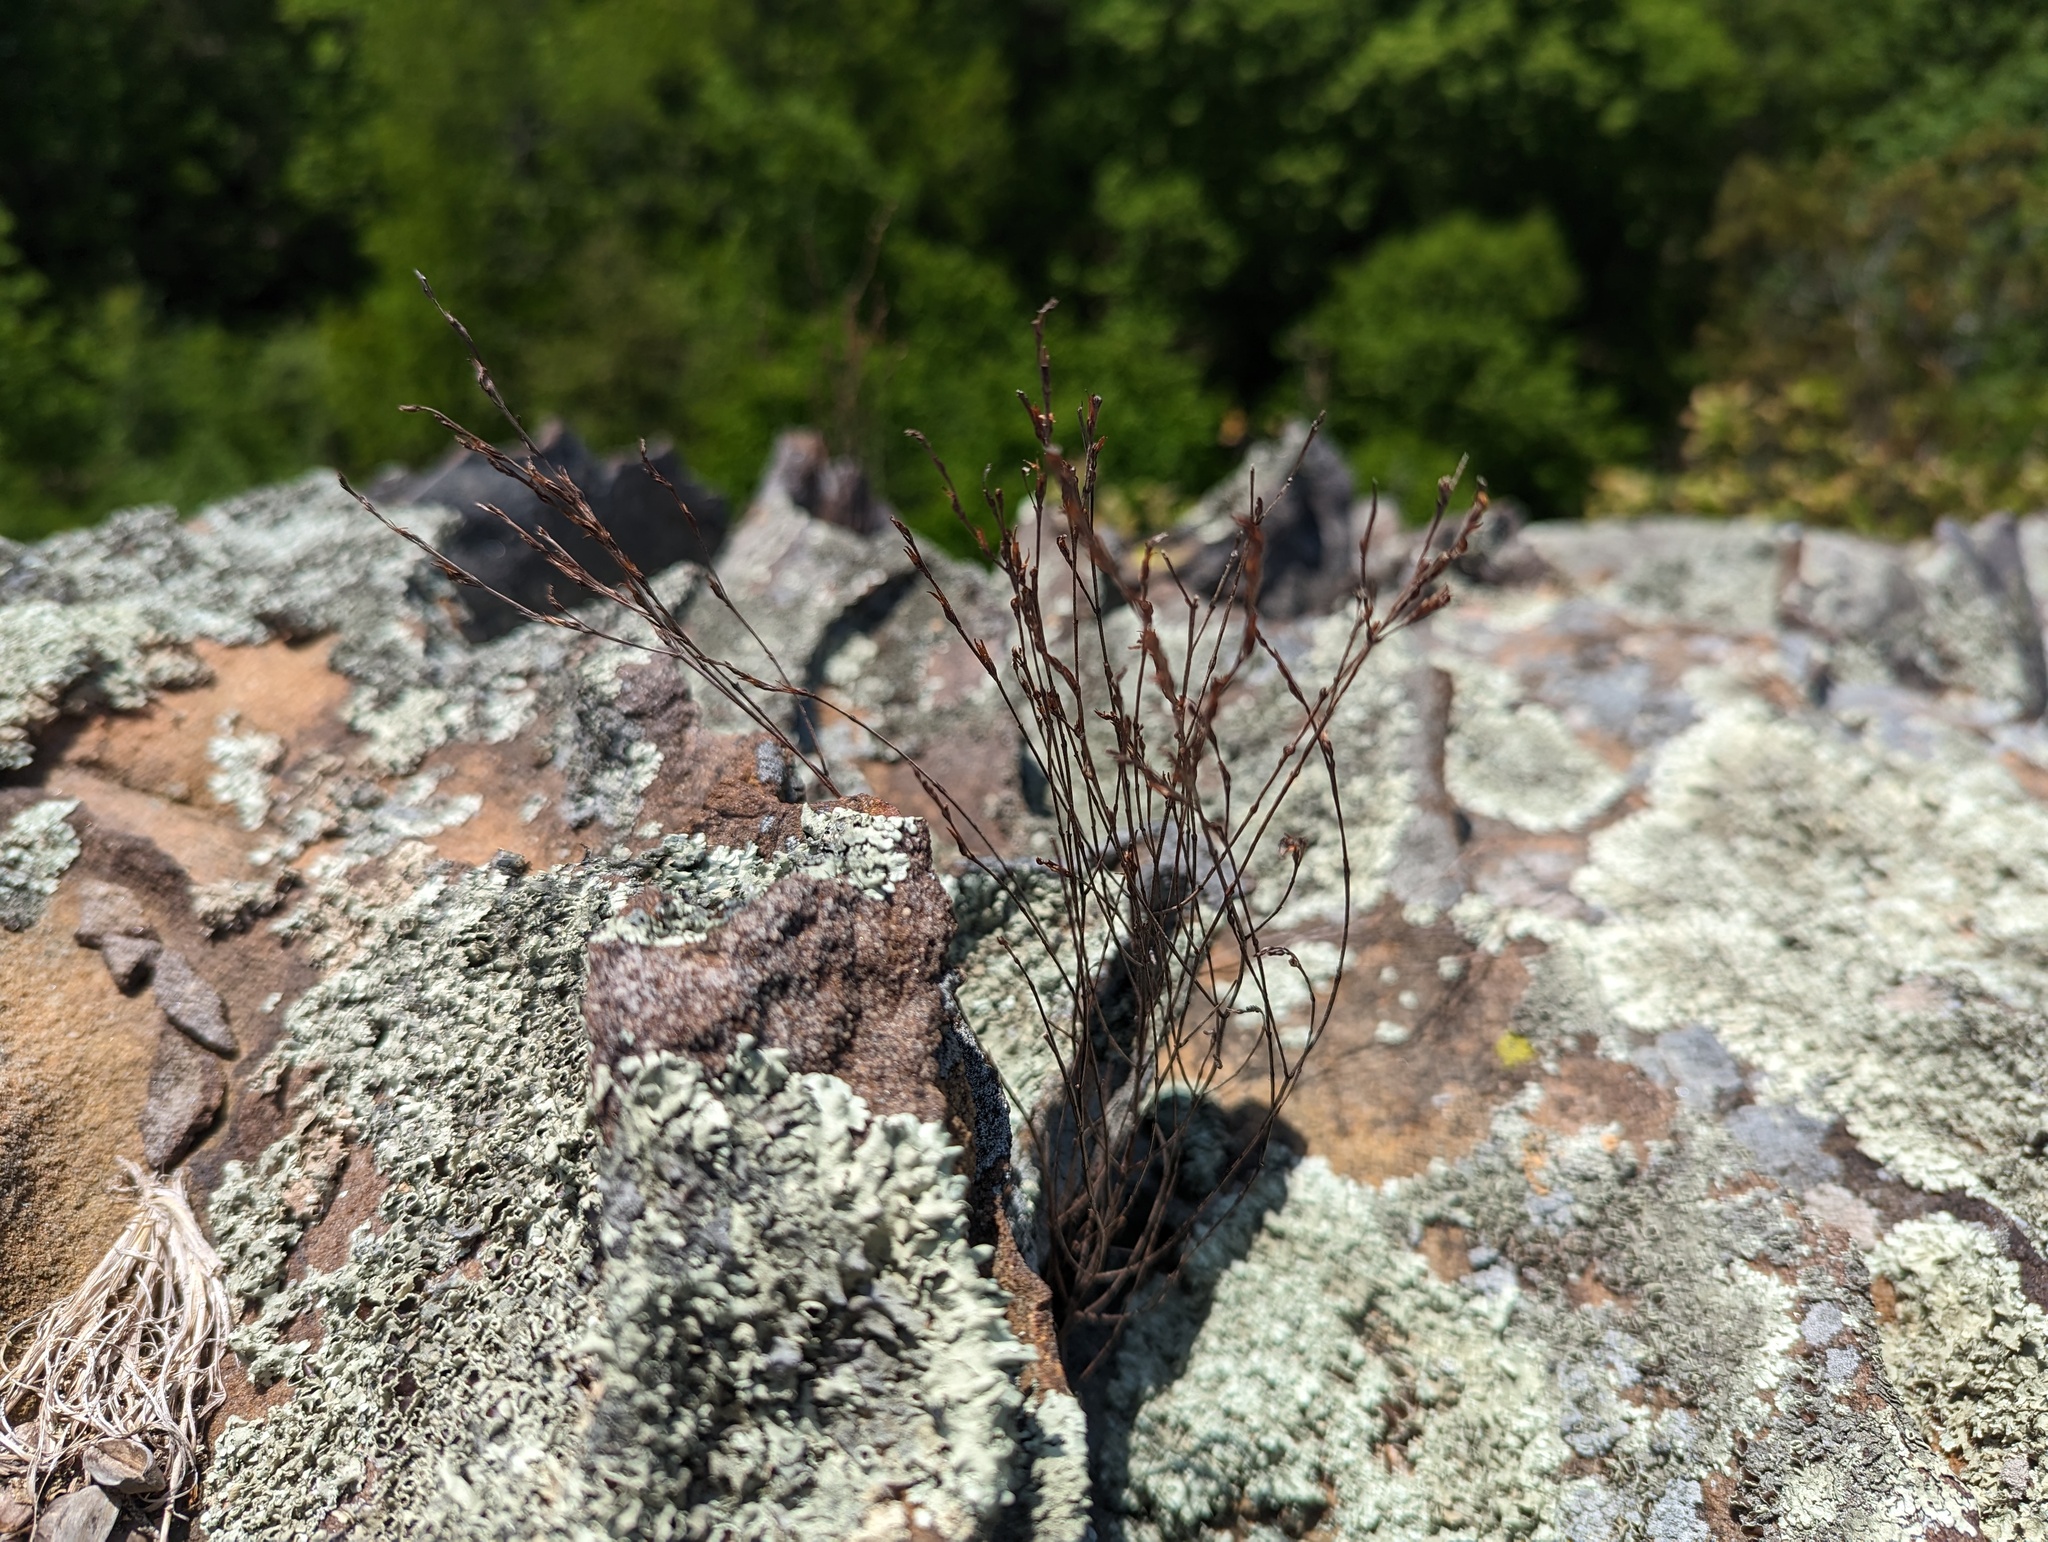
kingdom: Plantae
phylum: Tracheophyta
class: Magnoliopsida
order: Malpighiales
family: Hypericaceae
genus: Hypericum
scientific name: Hypericum gentianoides
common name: Gentian-leaved st. john's-wort
